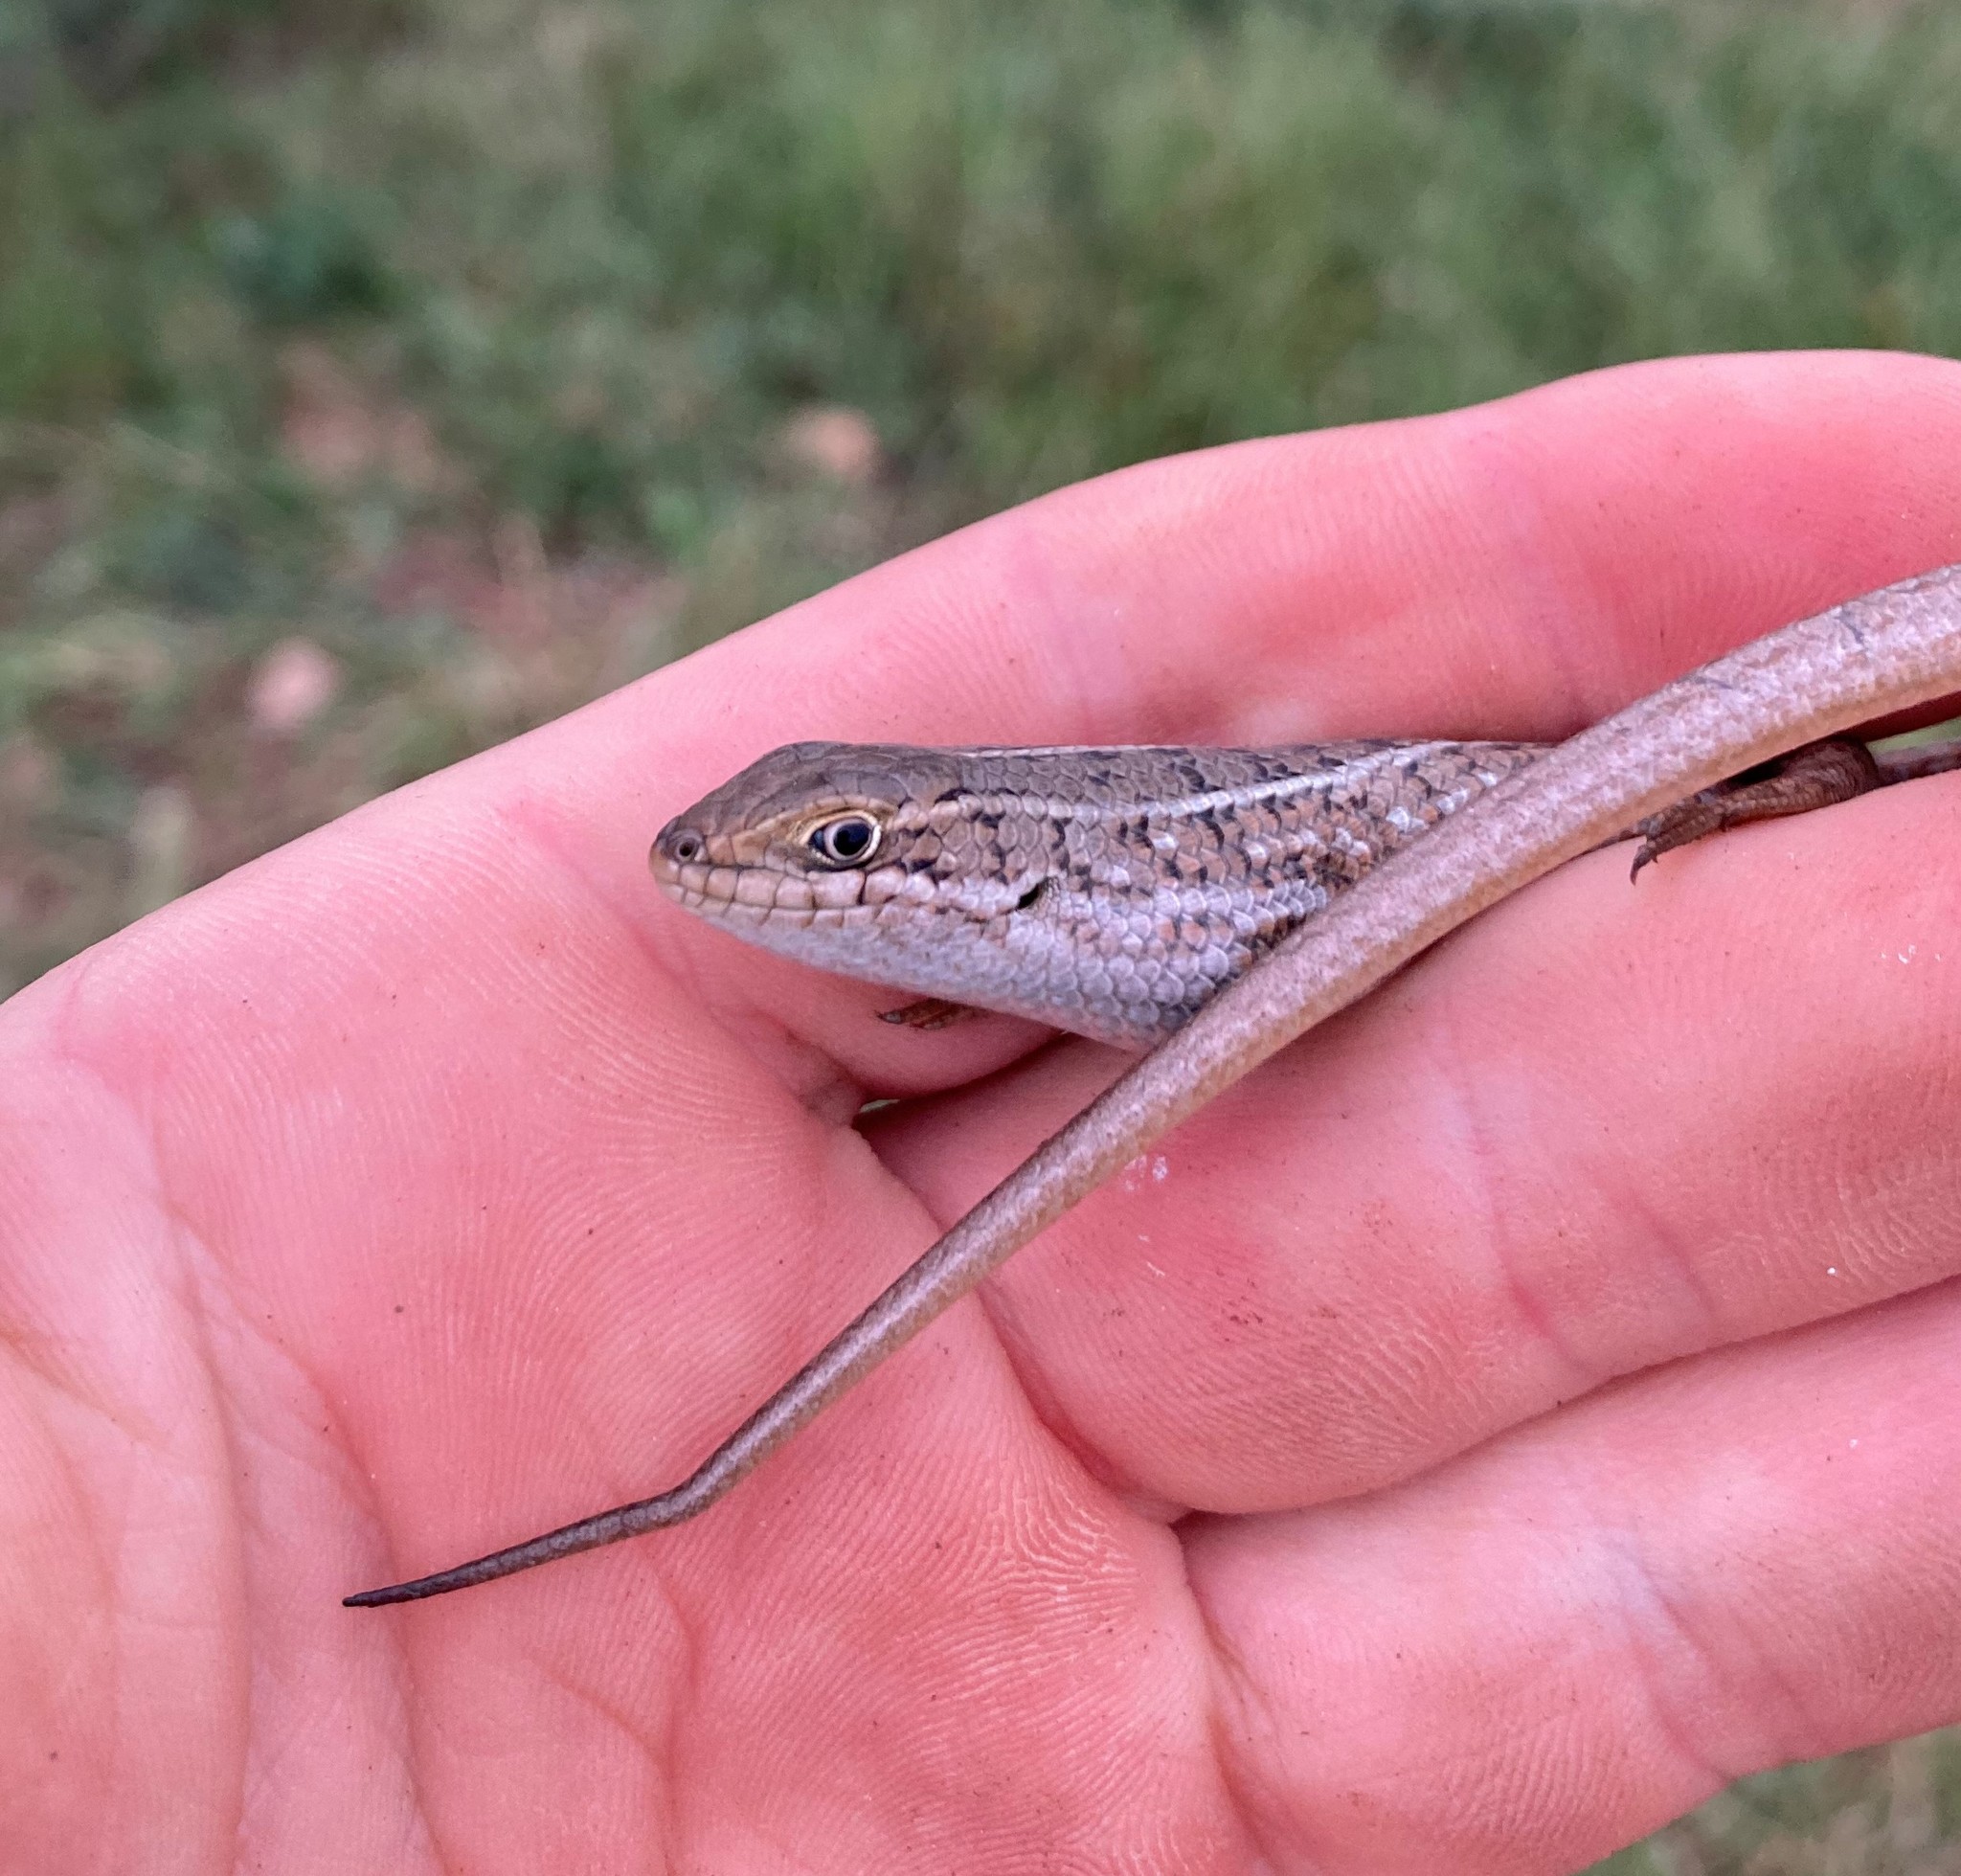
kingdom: Animalia
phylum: Chordata
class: Squamata
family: Scincidae
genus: Trachylepis
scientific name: Trachylepis capensis
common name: Cape skink
